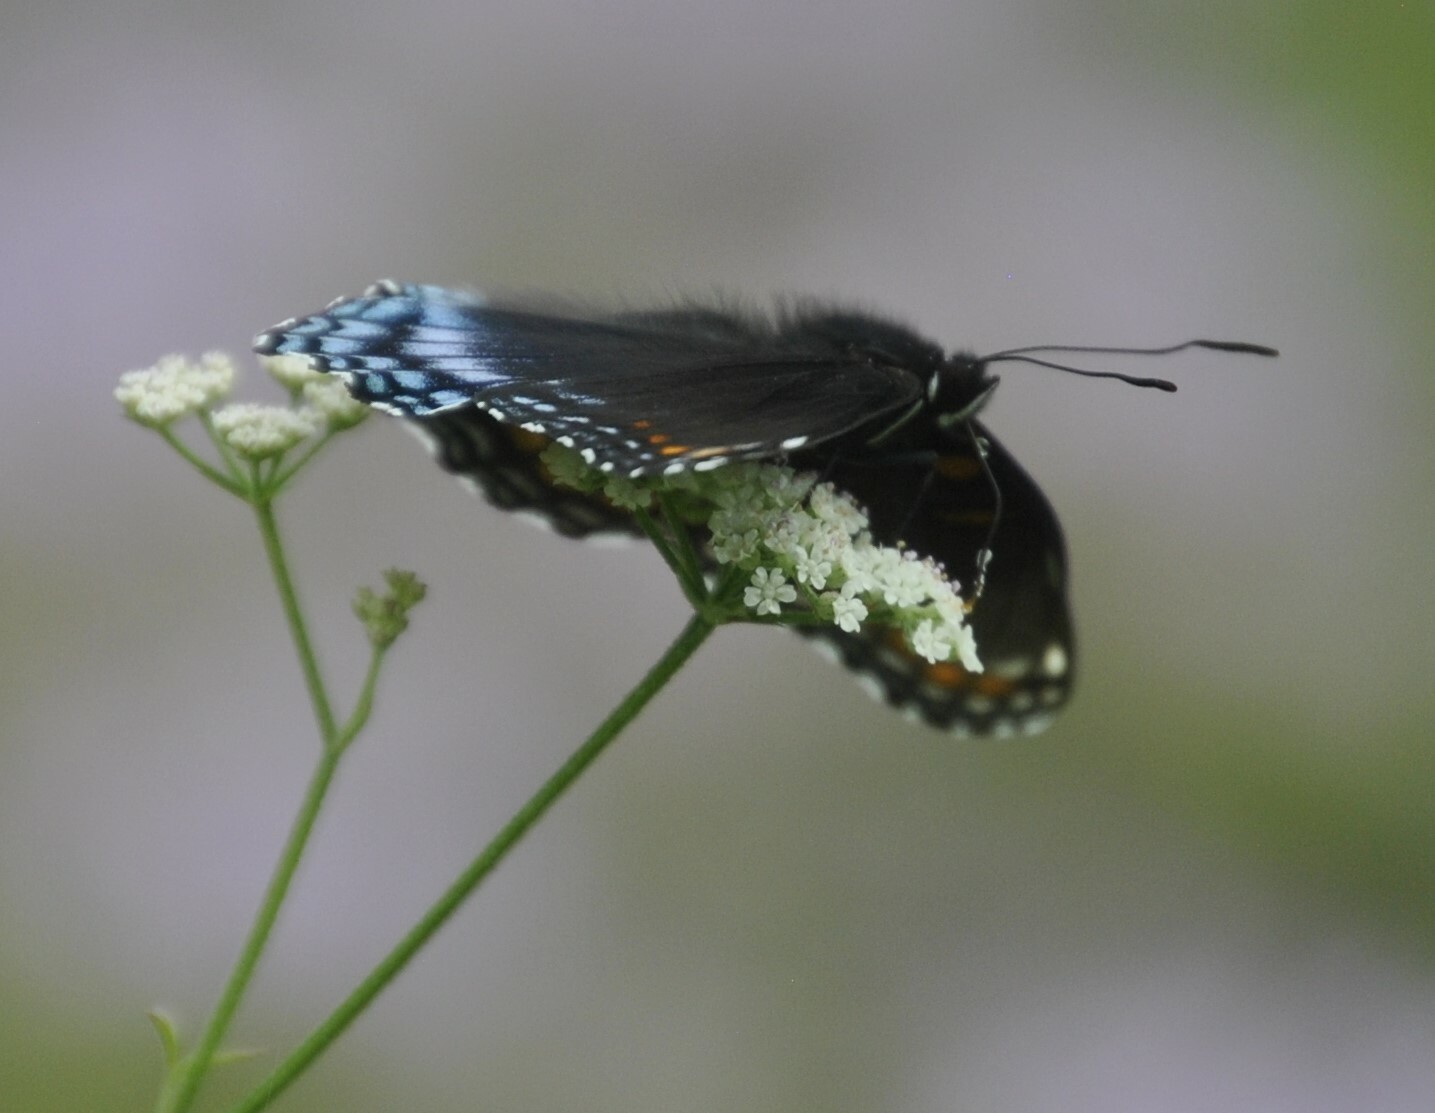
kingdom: Animalia
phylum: Arthropoda
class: Insecta
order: Lepidoptera
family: Nymphalidae
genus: Limenitis
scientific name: Limenitis astyanax
